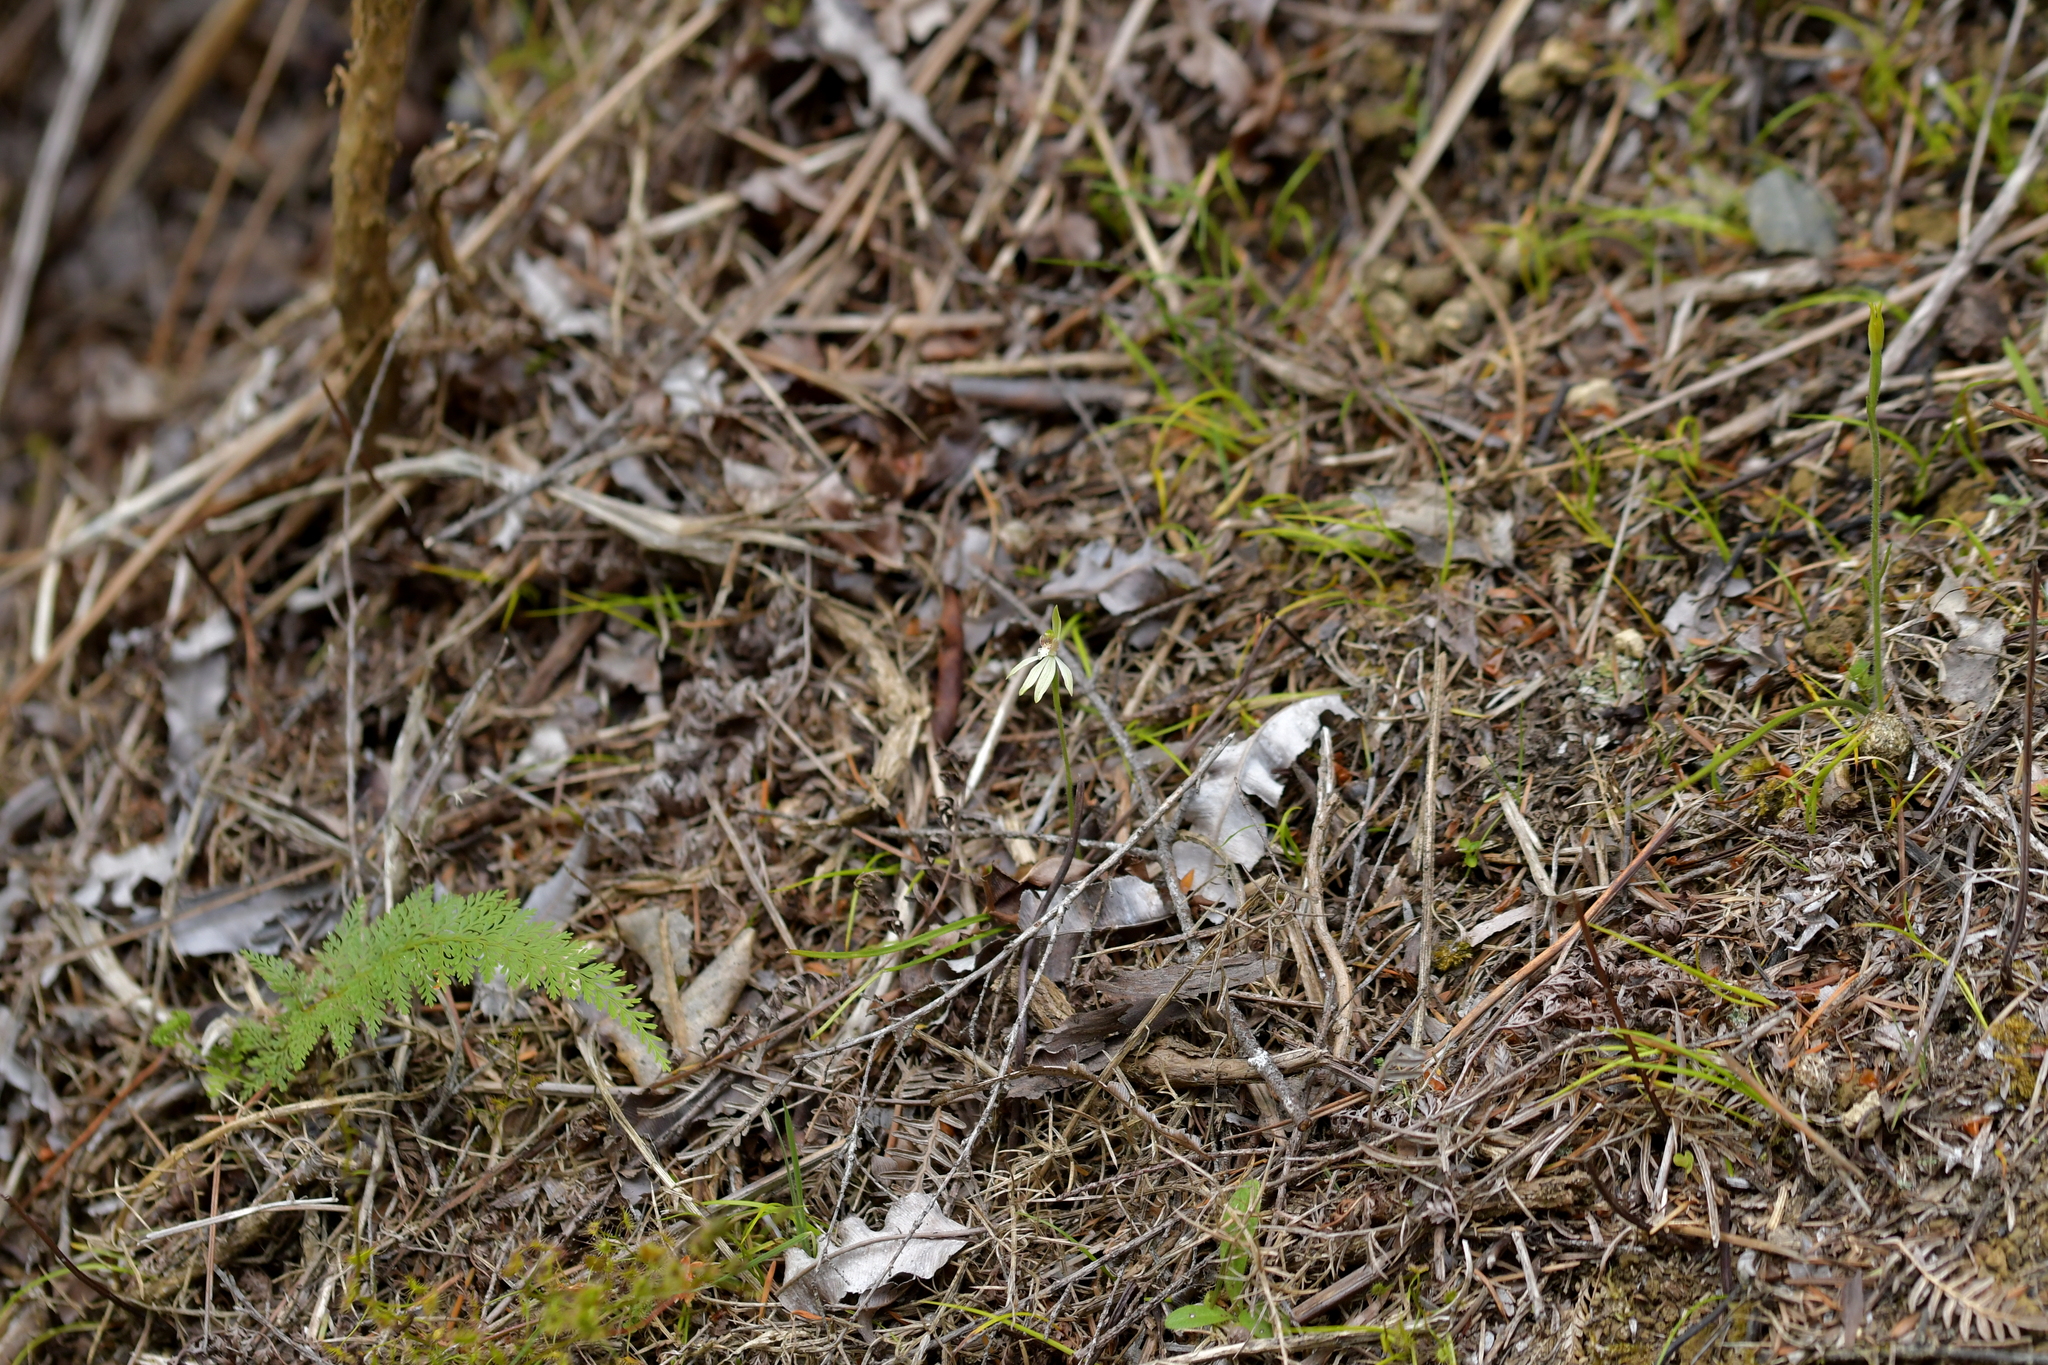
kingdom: Plantae
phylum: Tracheophyta
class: Liliopsida
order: Asparagales
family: Orchidaceae
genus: Caladenia
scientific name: Caladenia chlorostyla
